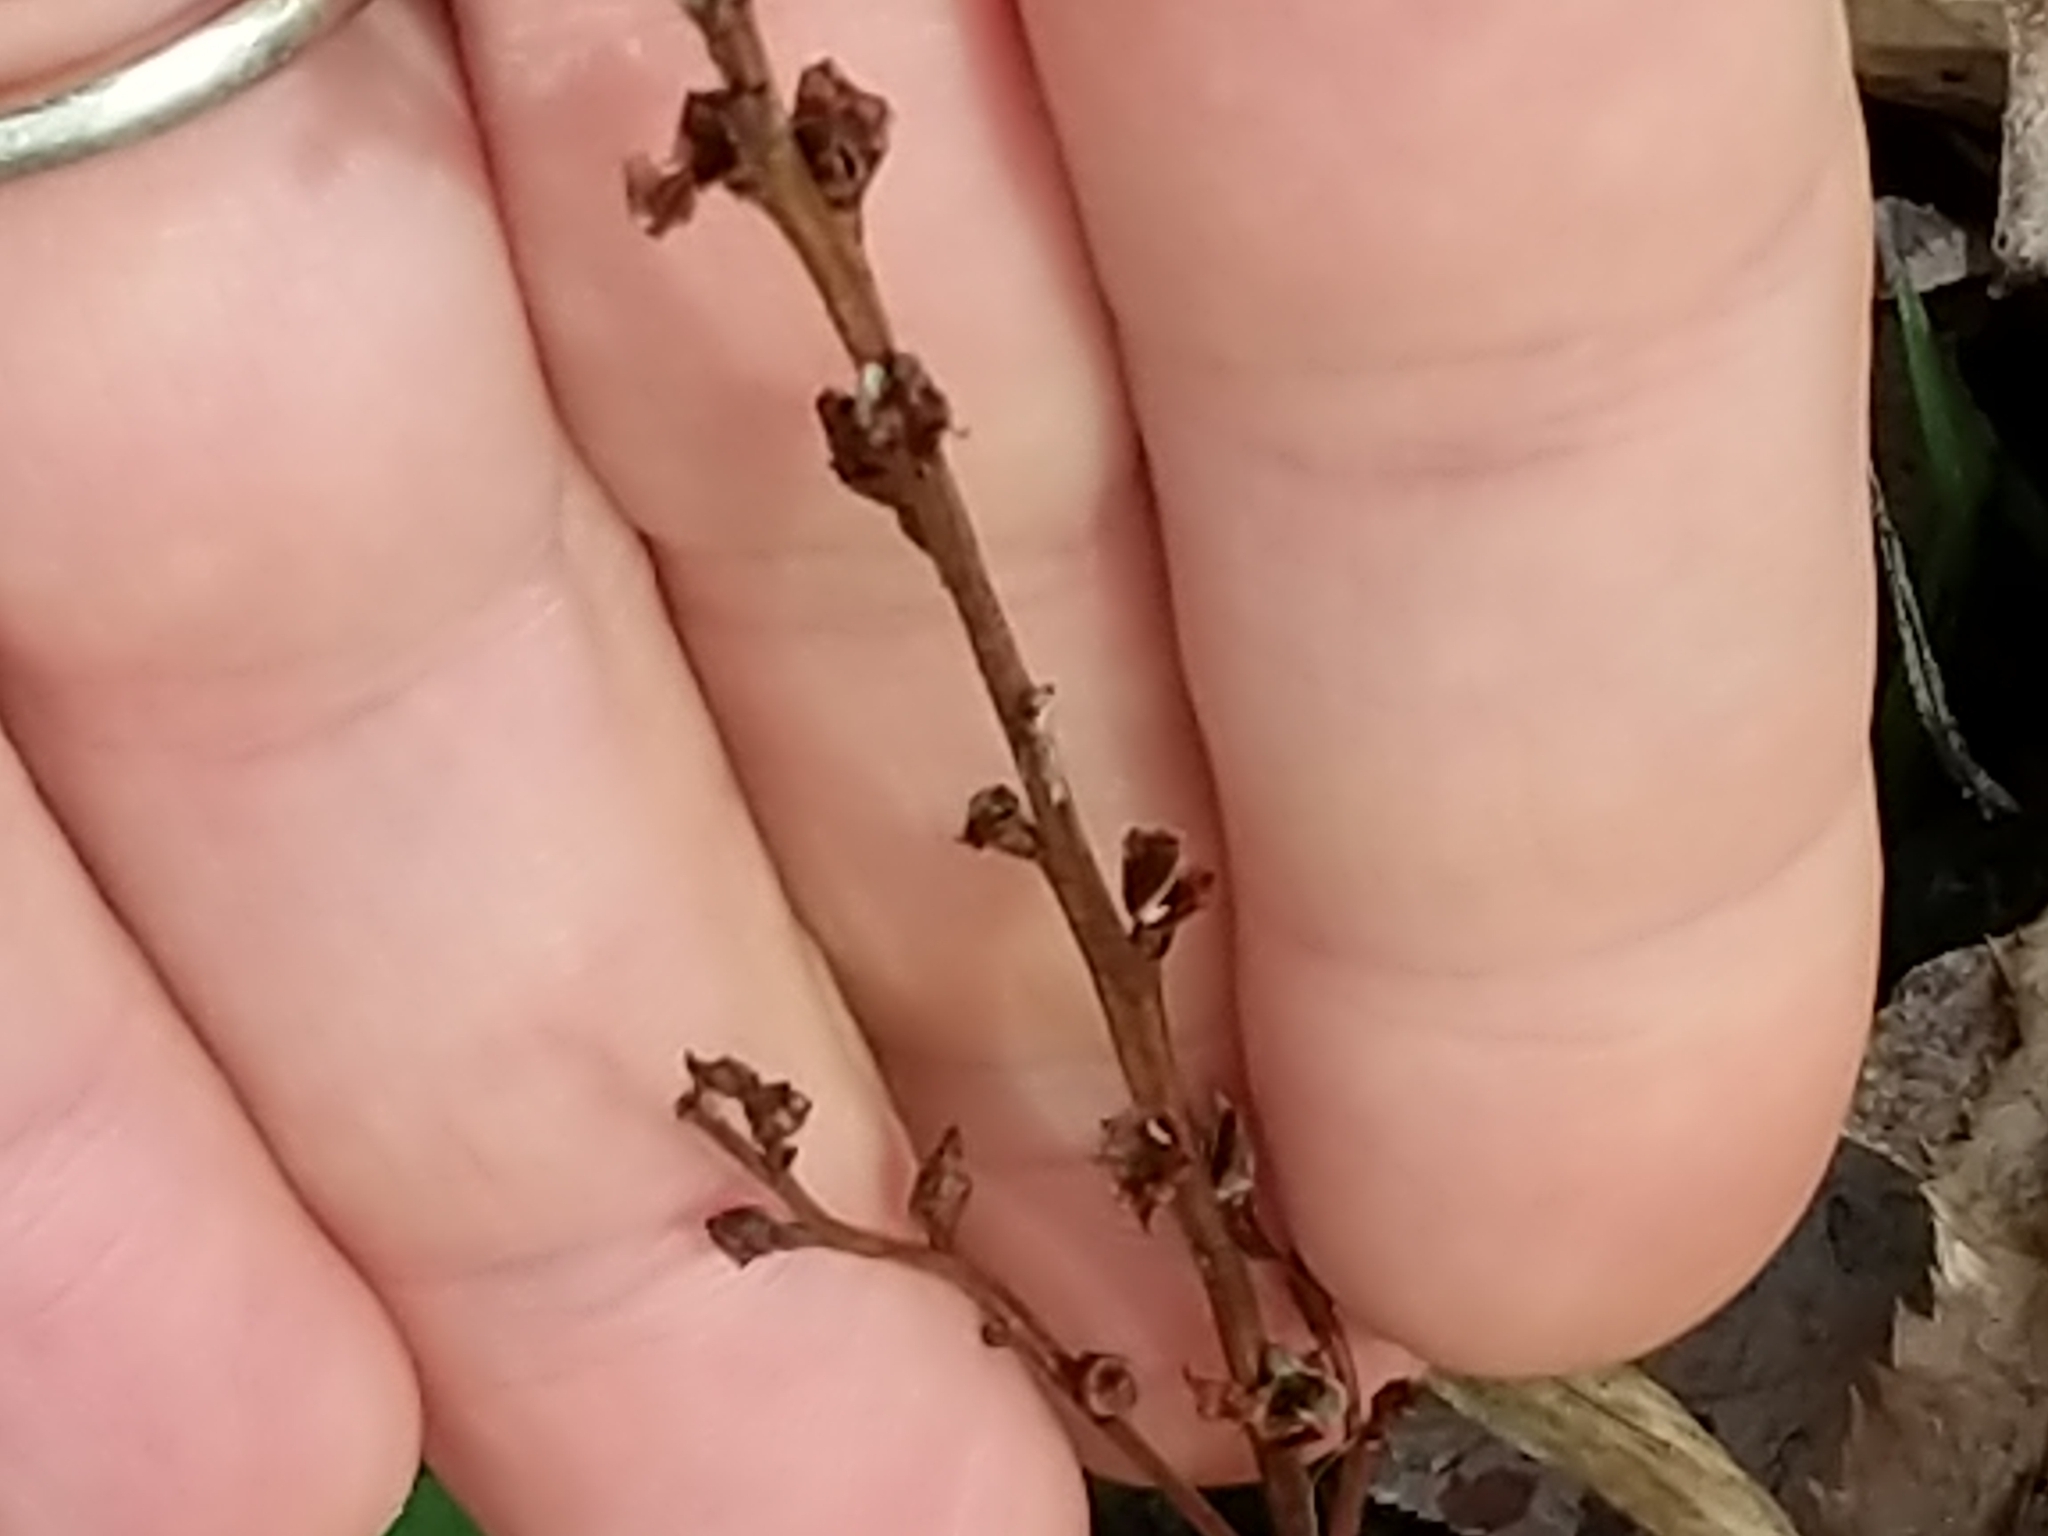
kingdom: Plantae
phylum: Tracheophyta
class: Magnoliopsida
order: Lamiales
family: Orobanchaceae
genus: Epifagus
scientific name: Epifagus virginiana
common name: Beechdrops
